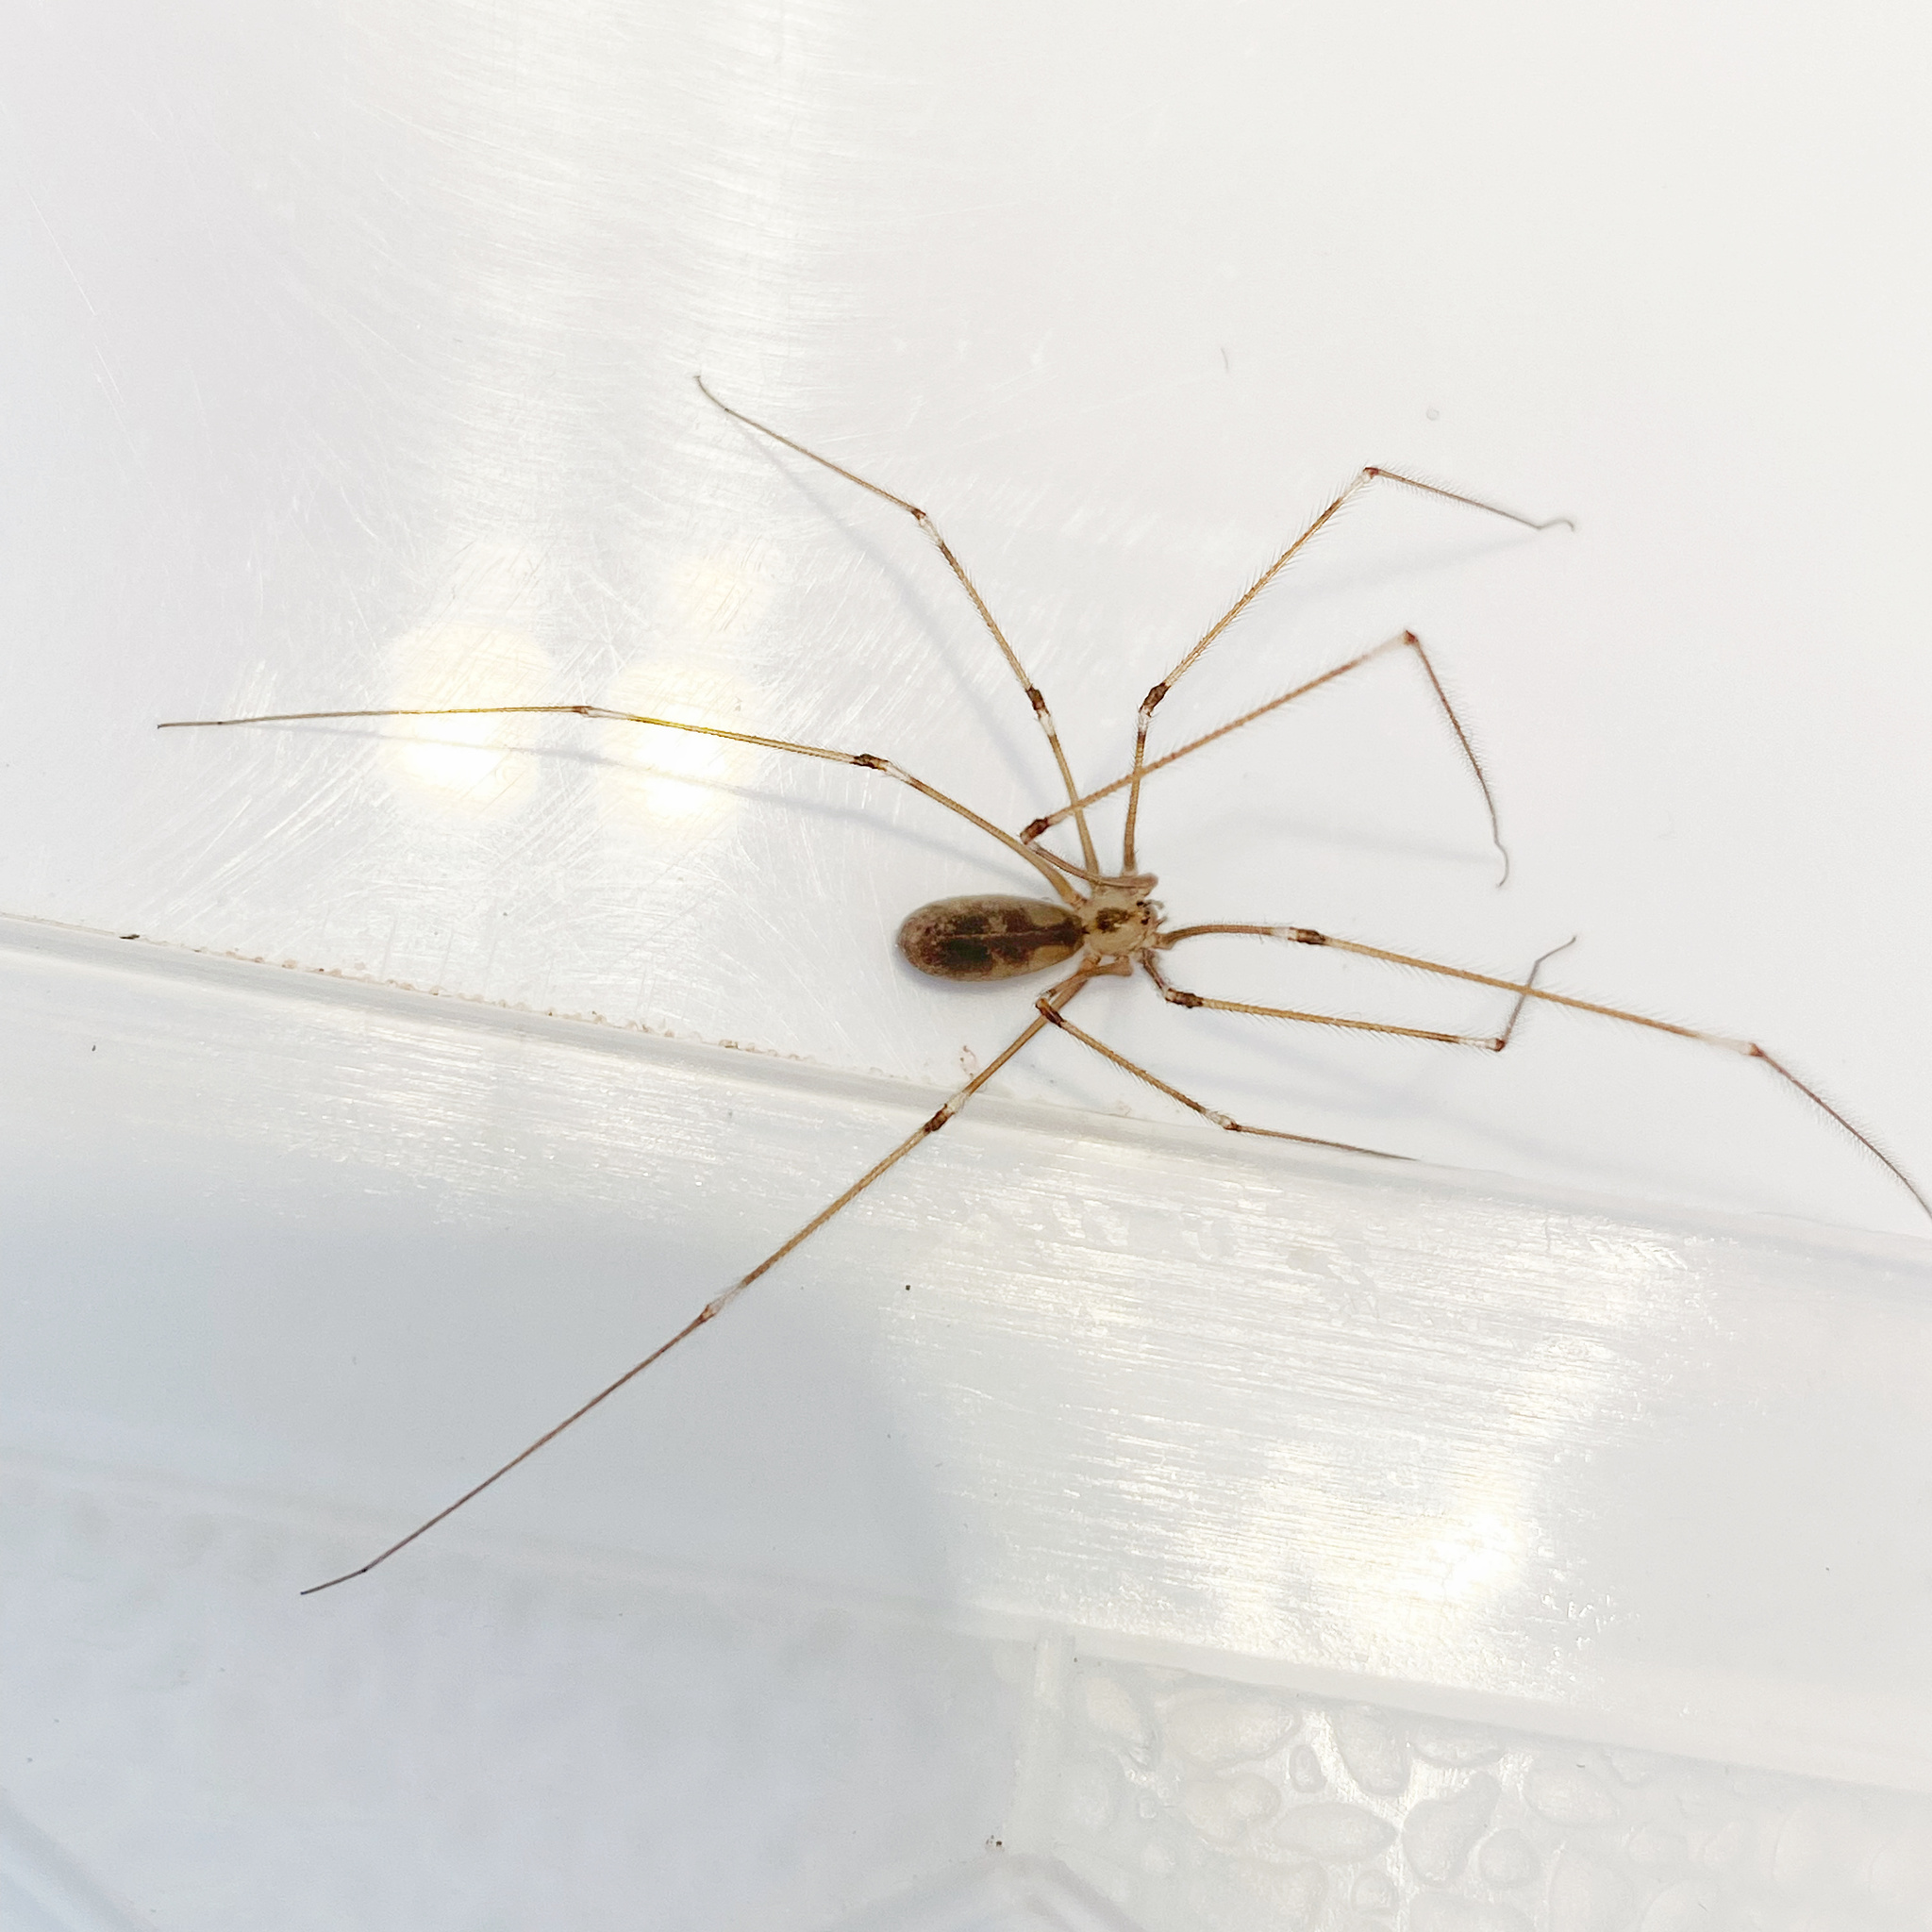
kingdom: Animalia
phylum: Arthropoda
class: Arachnida
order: Araneae
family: Pholcidae
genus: Pholcus
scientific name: Pholcus phalangioides
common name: Longbodied cellar spider
